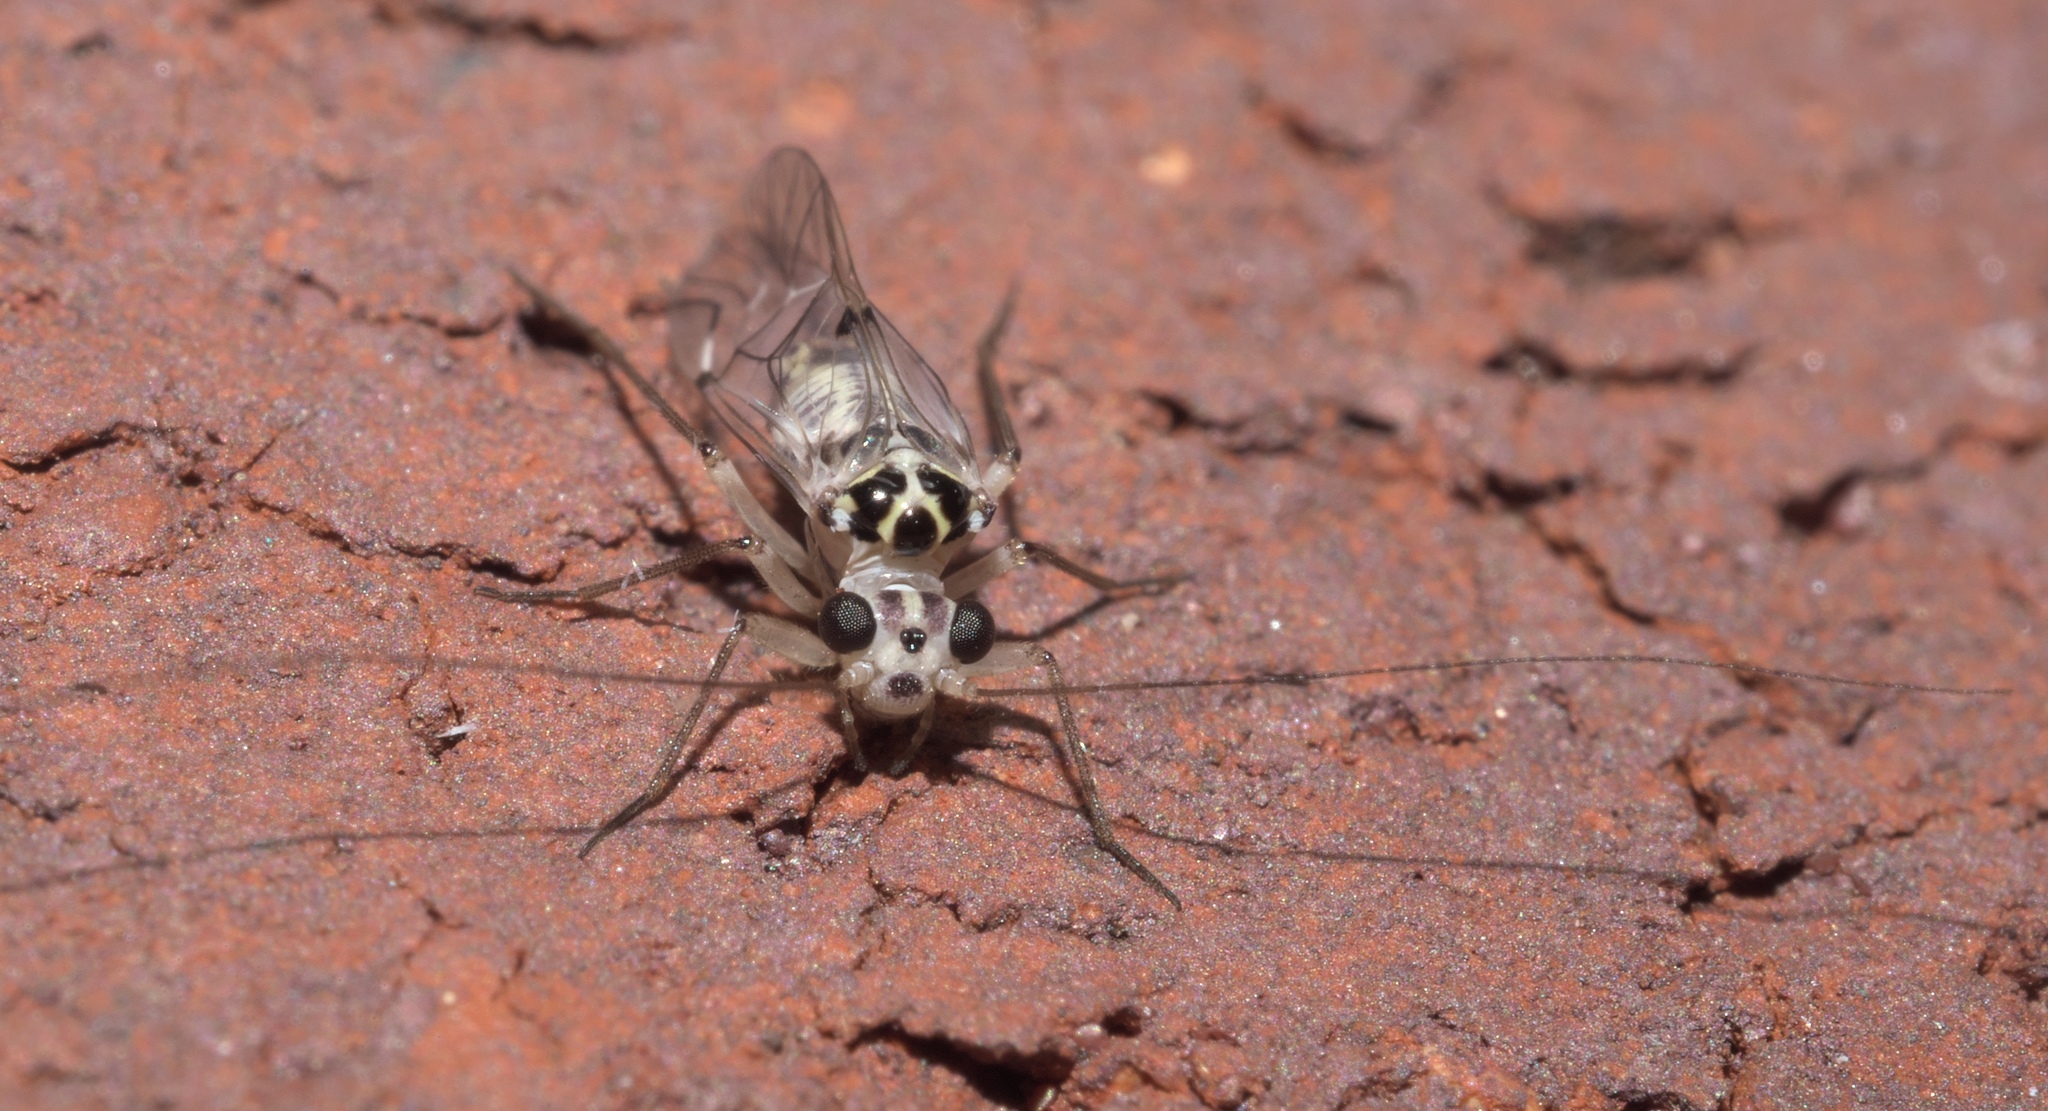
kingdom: Animalia
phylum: Arthropoda
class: Insecta
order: Psocodea
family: Psocidae
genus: Metylophorus
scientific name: Metylophorus purus
